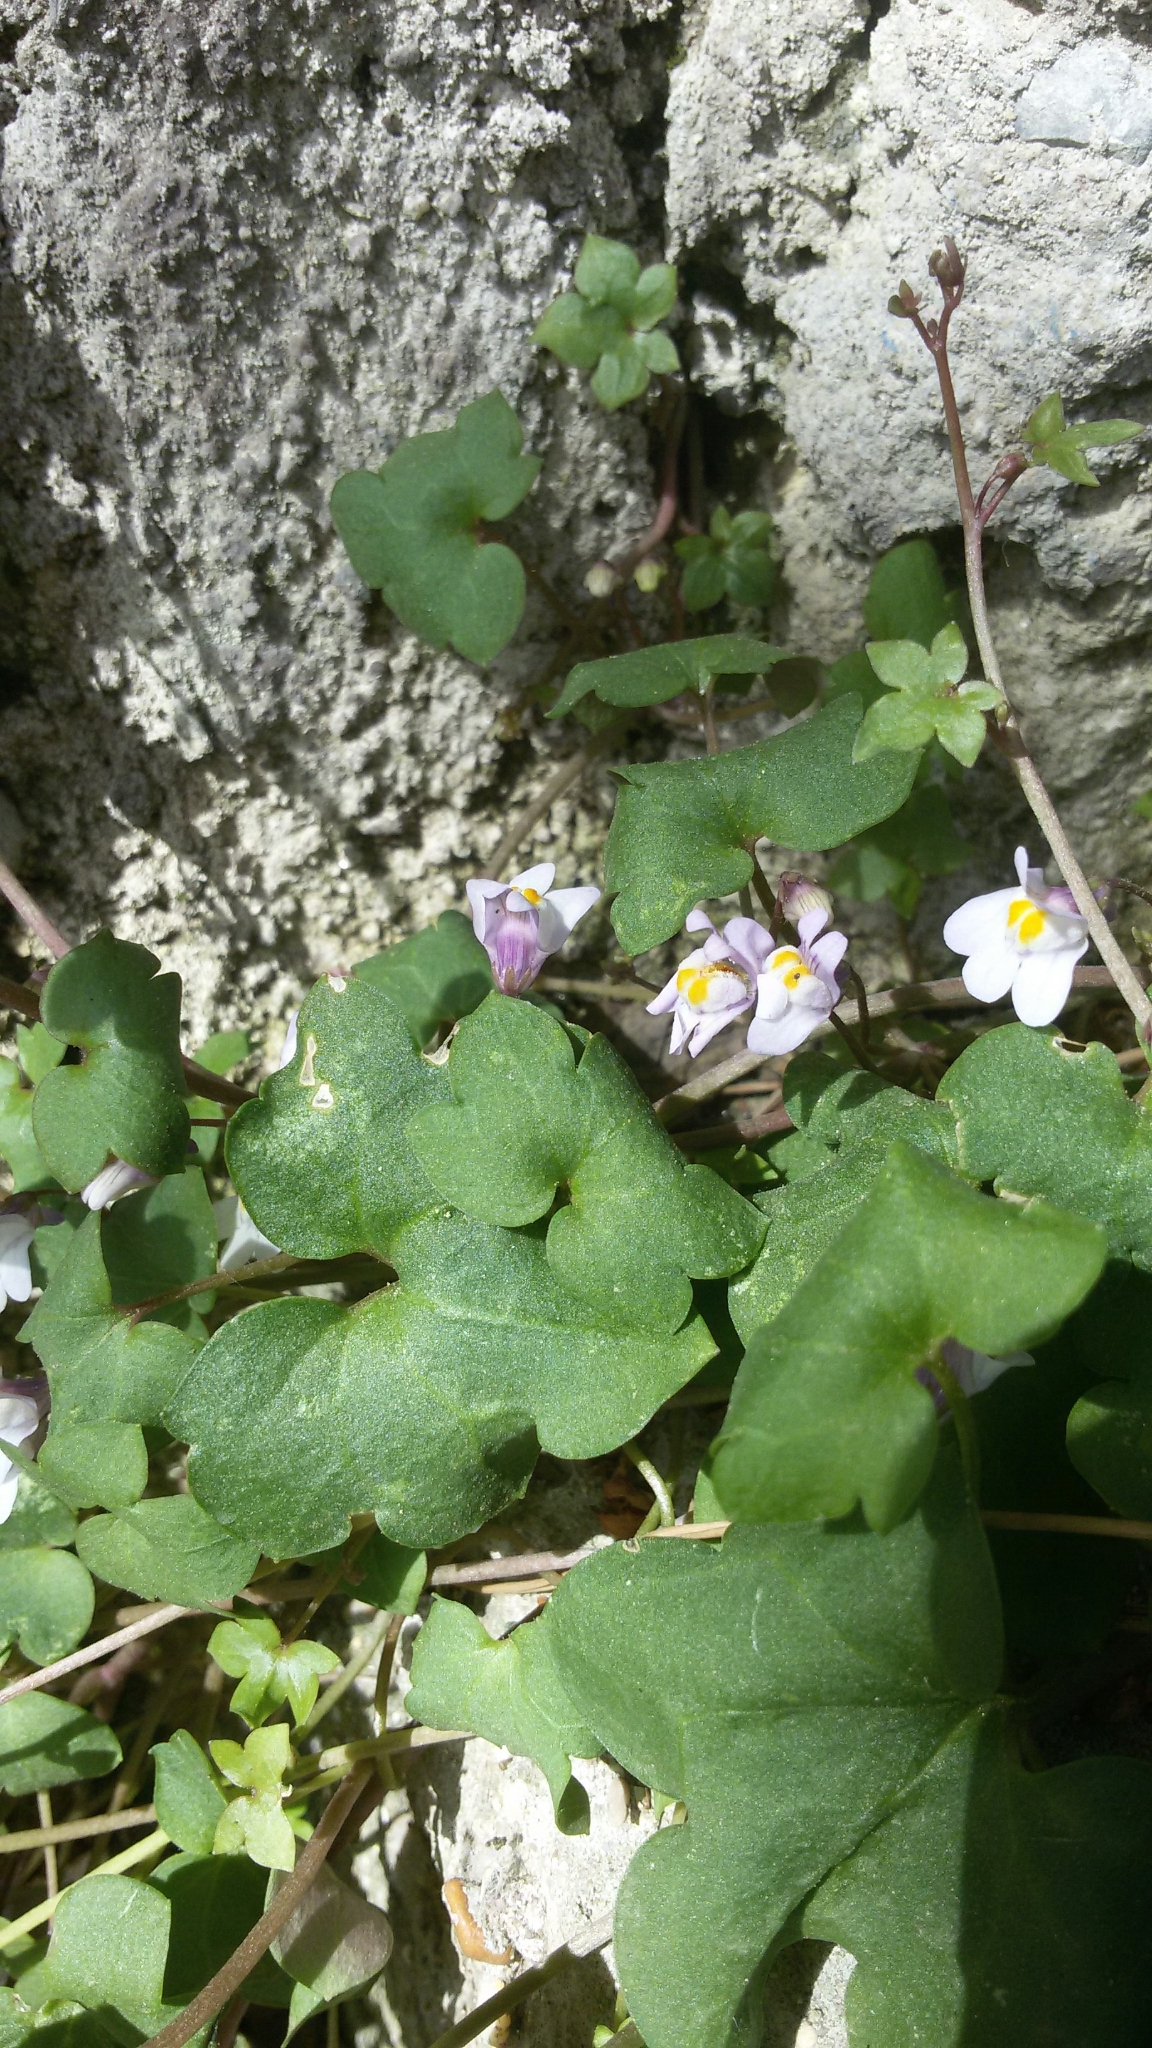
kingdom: Plantae
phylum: Tracheophyta
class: Magnoliopsida
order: Lamiales
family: Plantaginaceae
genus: Cymbalaria
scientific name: Cymbalaria muralis
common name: Ivy-leaved toadflax
